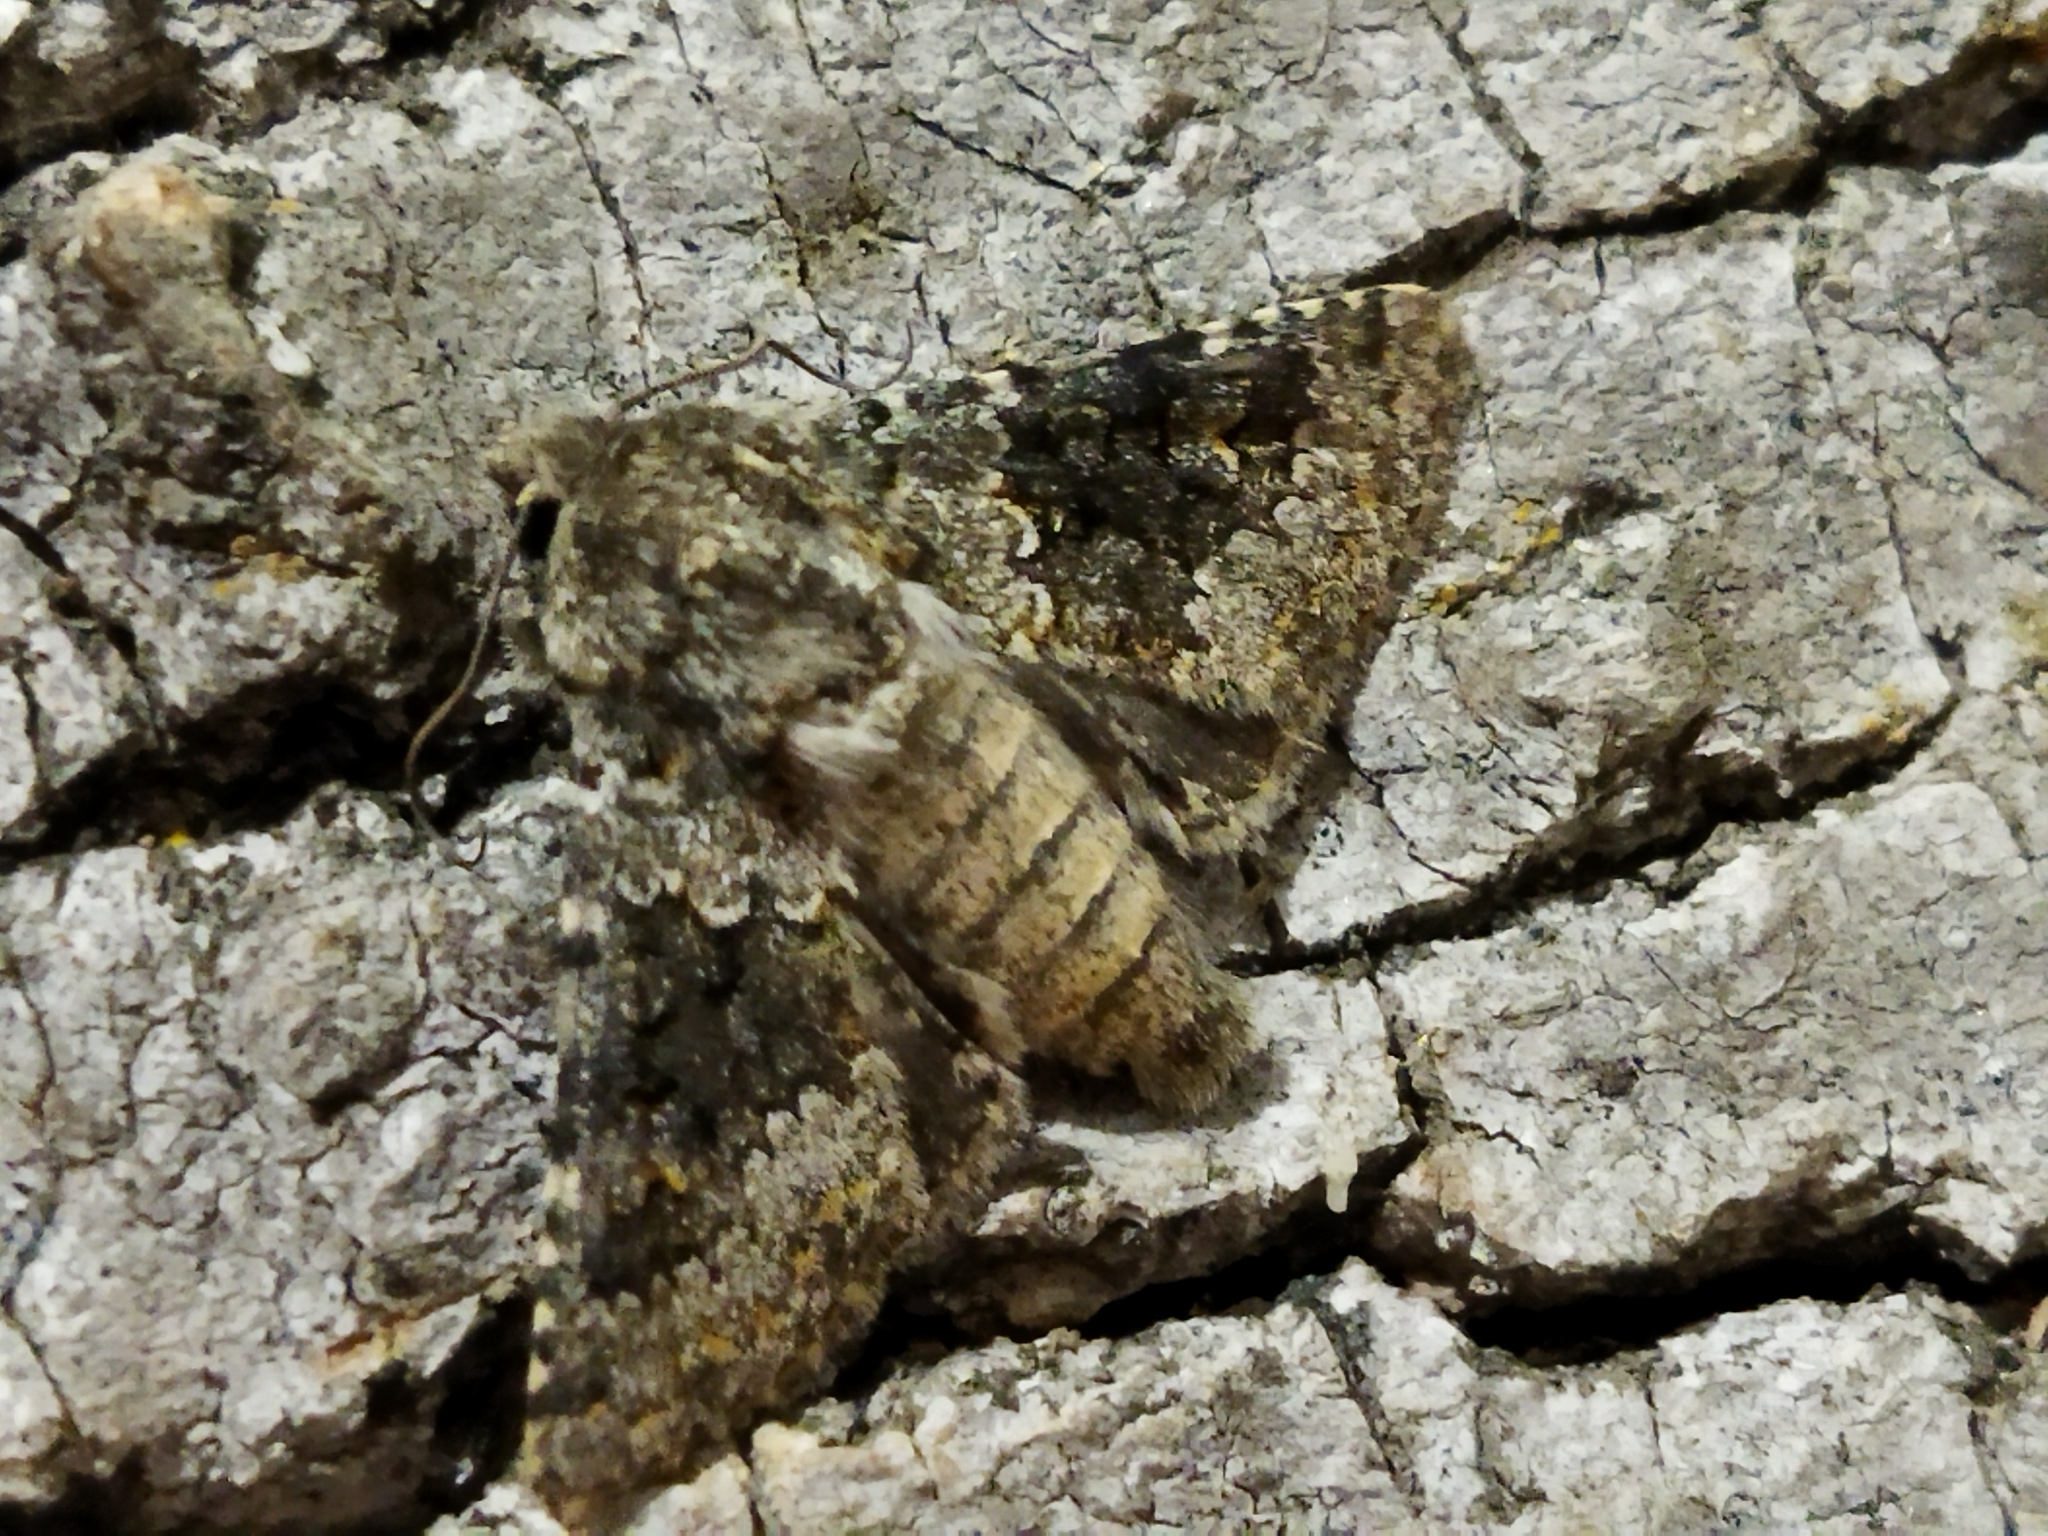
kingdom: Animalia
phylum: Arthropoda
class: Insecta
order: Lepidoptera
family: Noctuidae
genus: Hecatera
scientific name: Hecatera dysodea
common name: Small ranunculus
